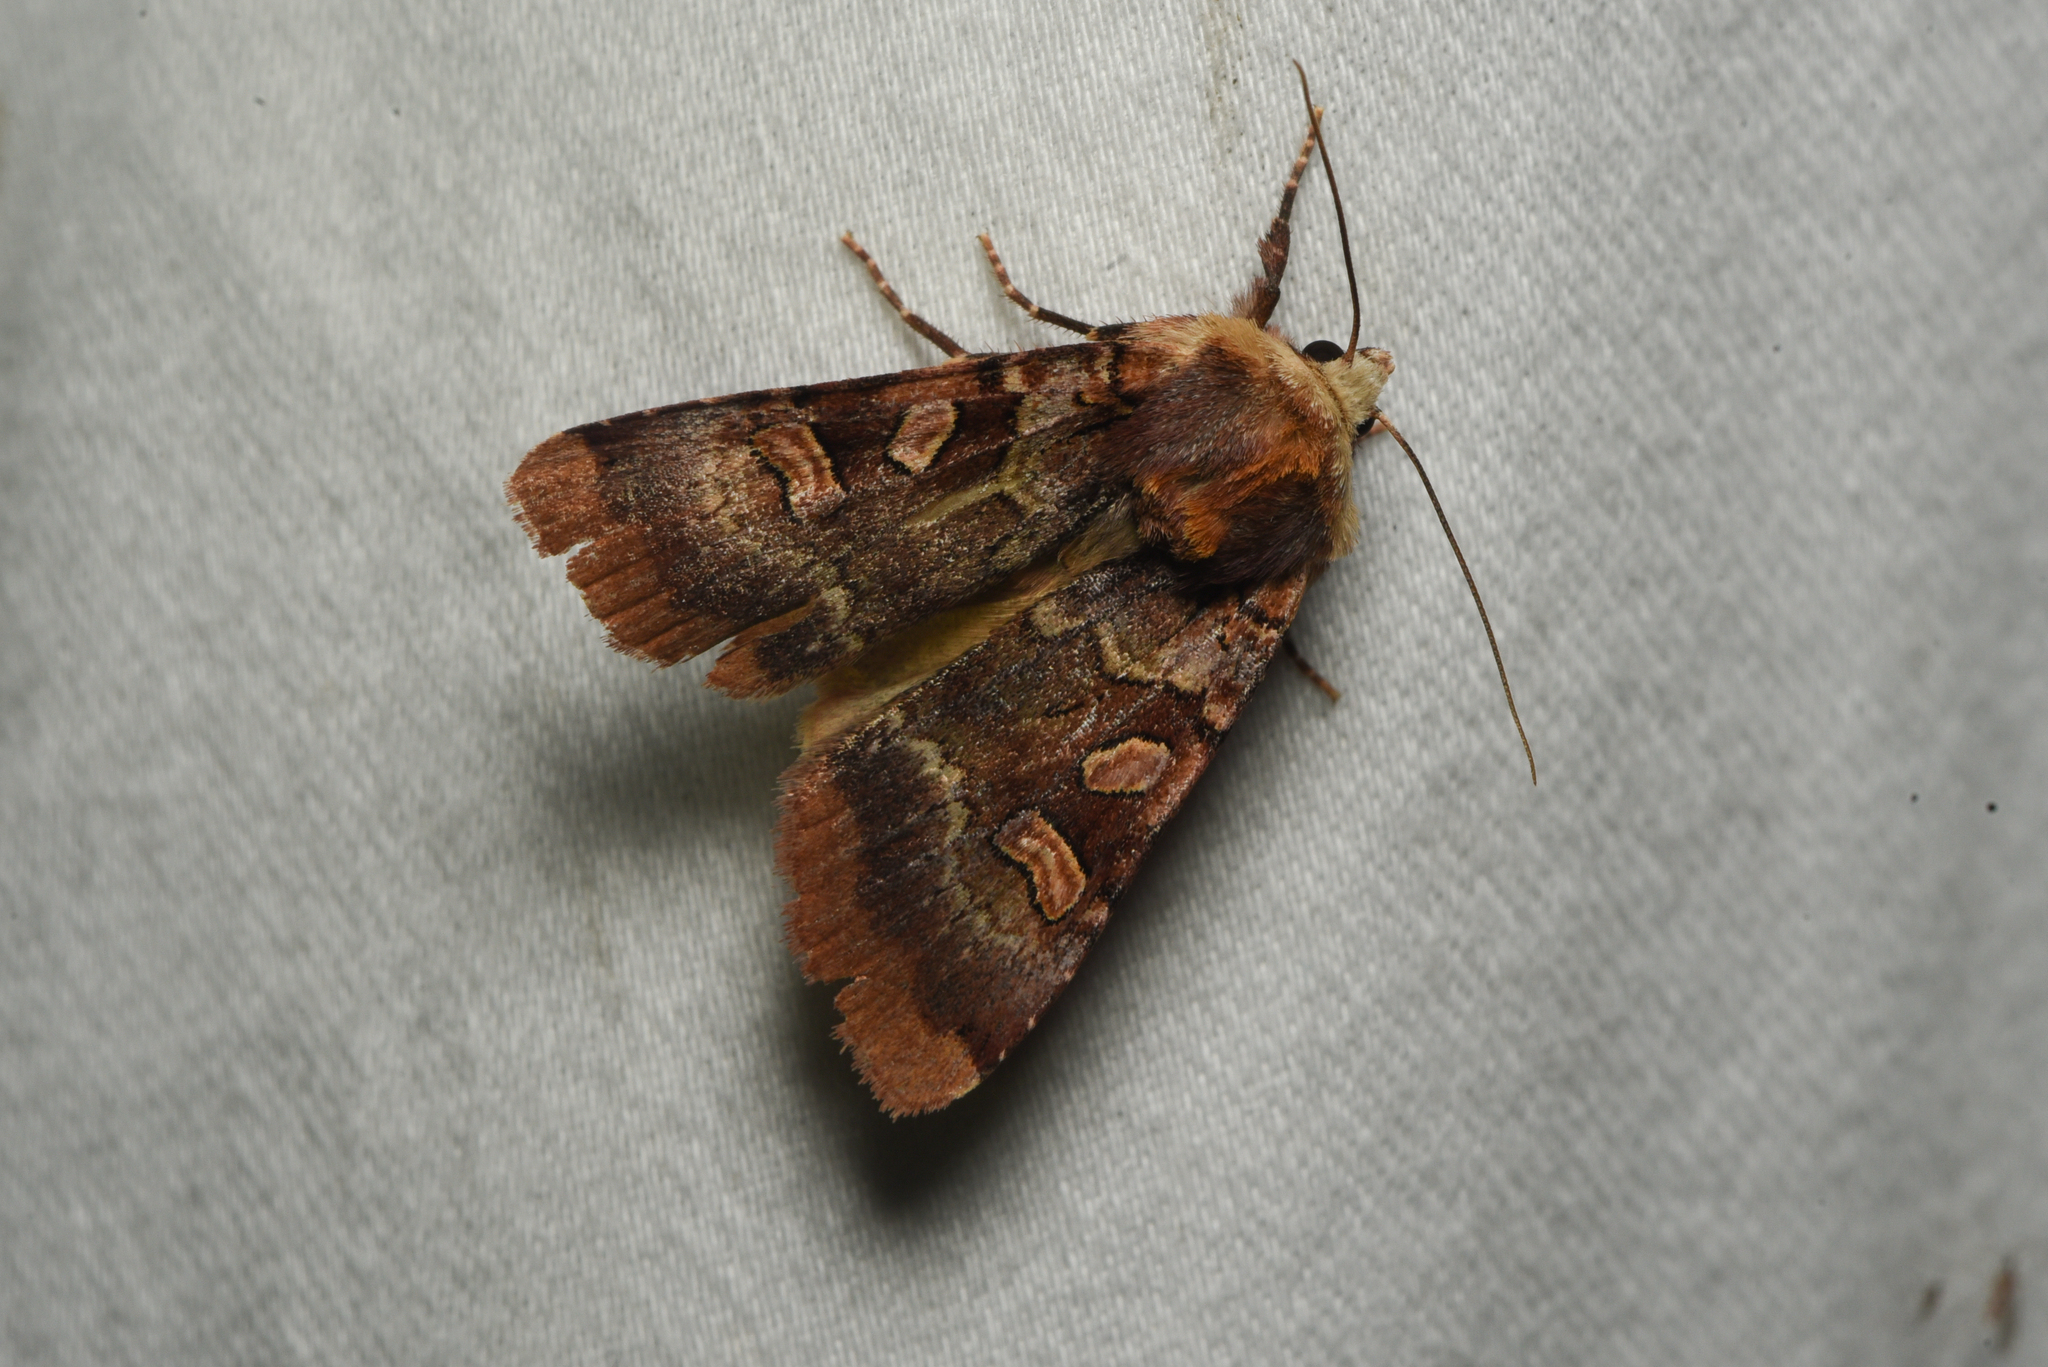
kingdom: Animalia
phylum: Arthropoda
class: Insecta
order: Lepidoptera
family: Noctuidae
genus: Xestia
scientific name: Xestia oblata
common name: Rosy dart
